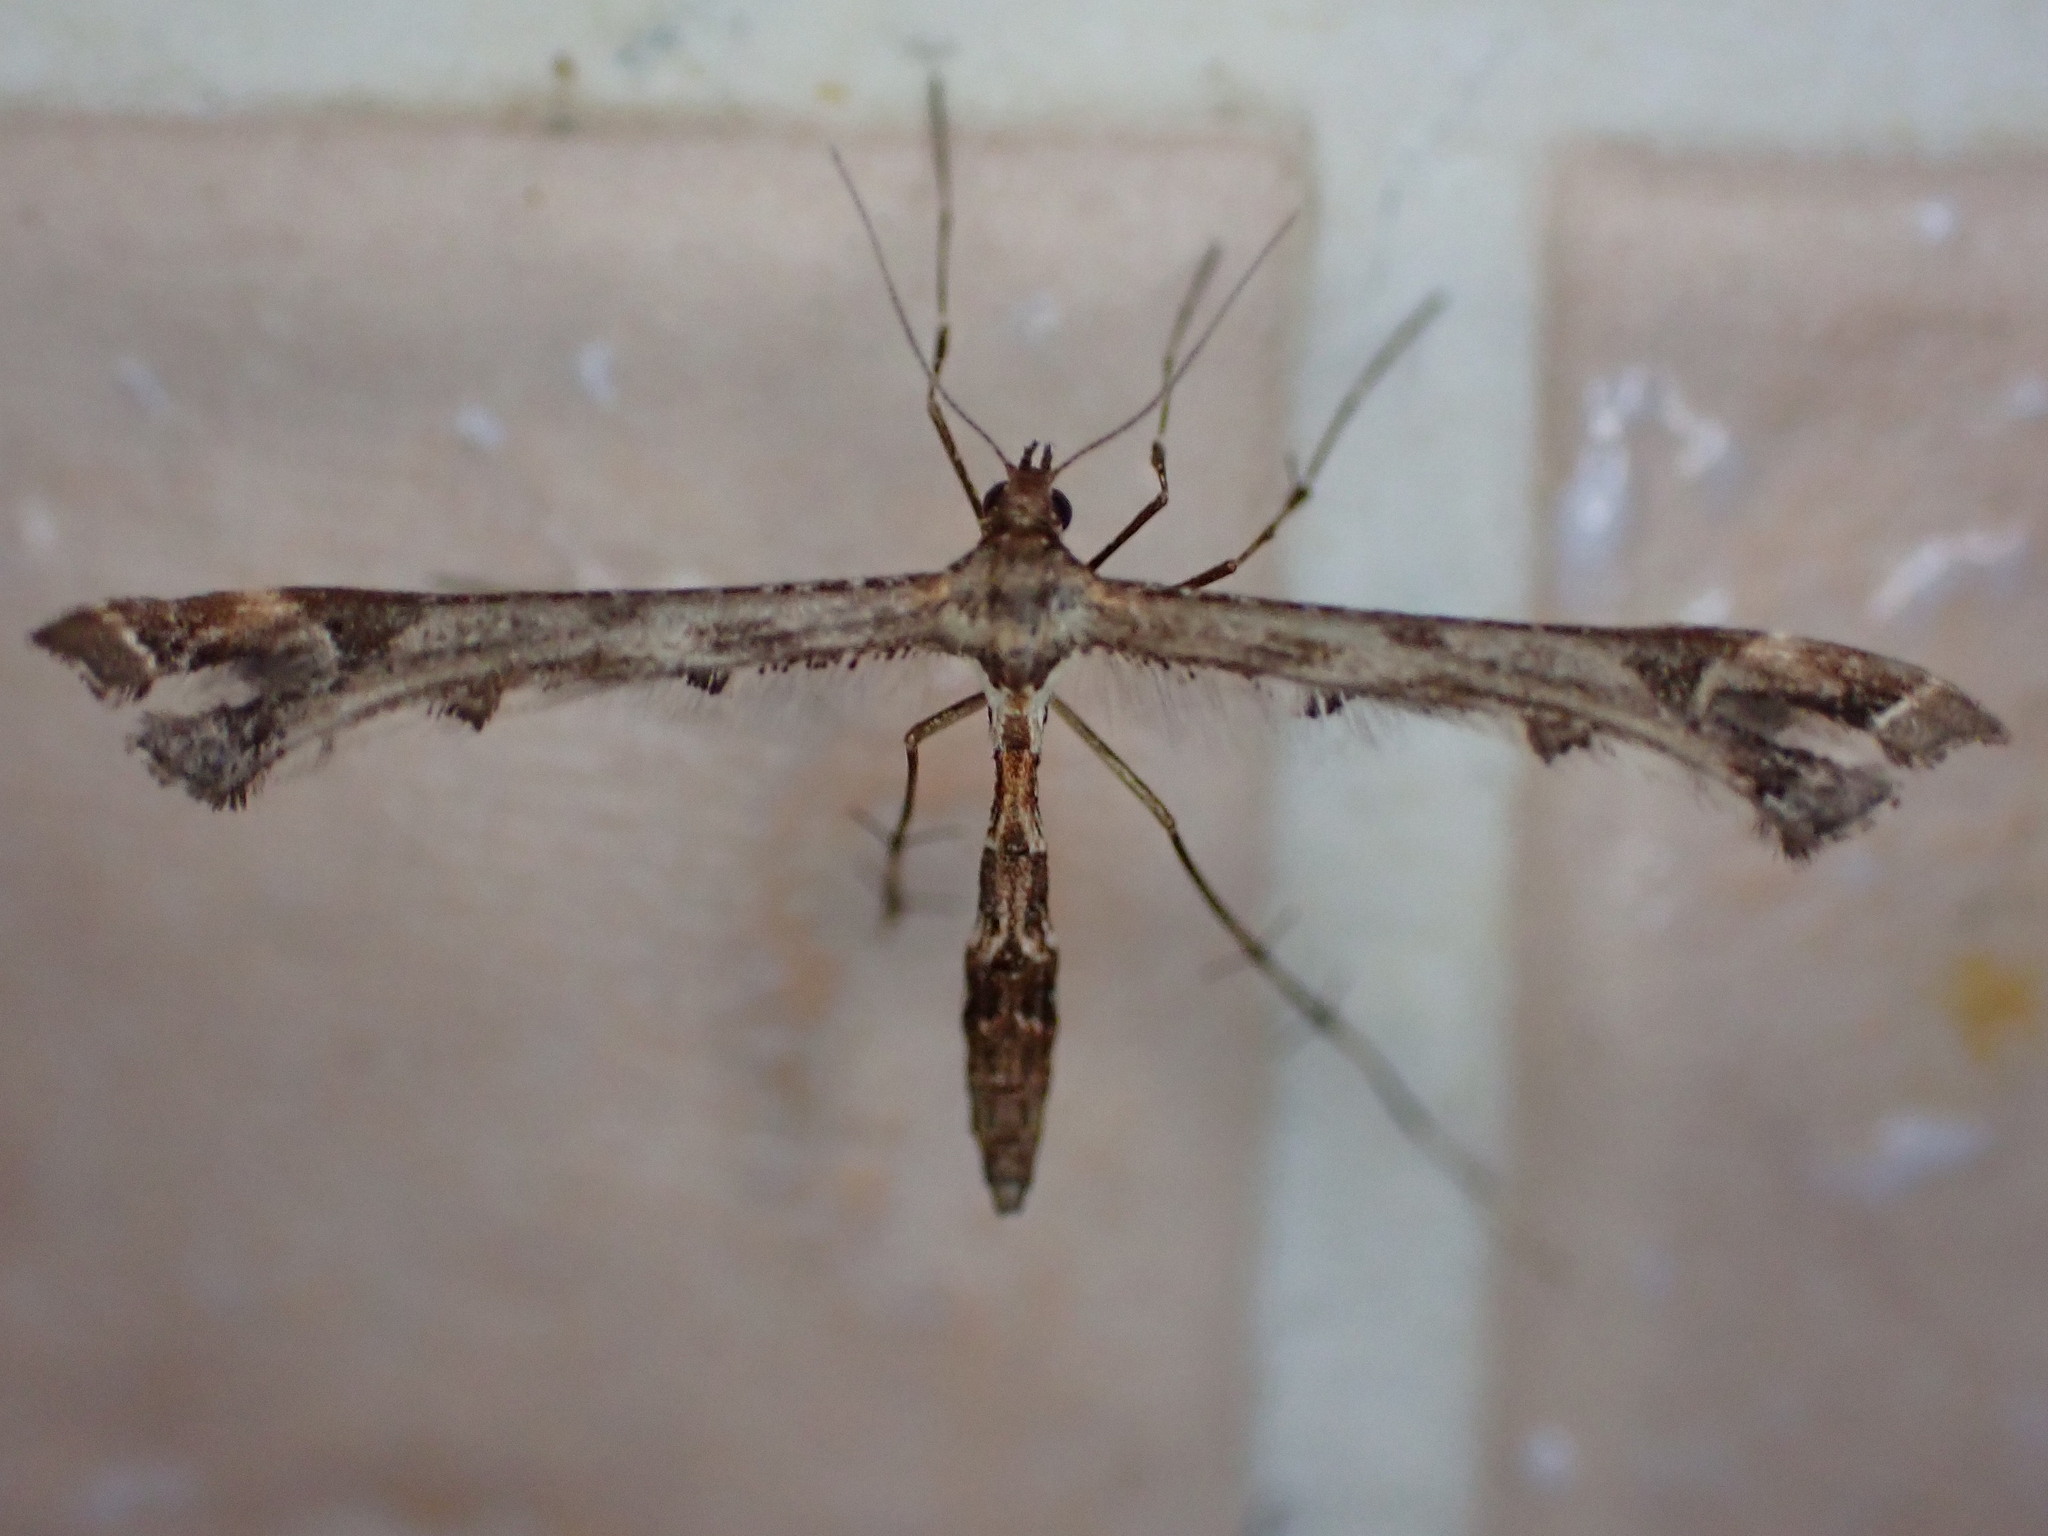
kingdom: Animalia
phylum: Arthropoda
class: Insecta
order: Lepidoptera
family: Pterophoridae
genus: Amblyptilia
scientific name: Amblyptilia acanthadactyla
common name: Beautiful plume
